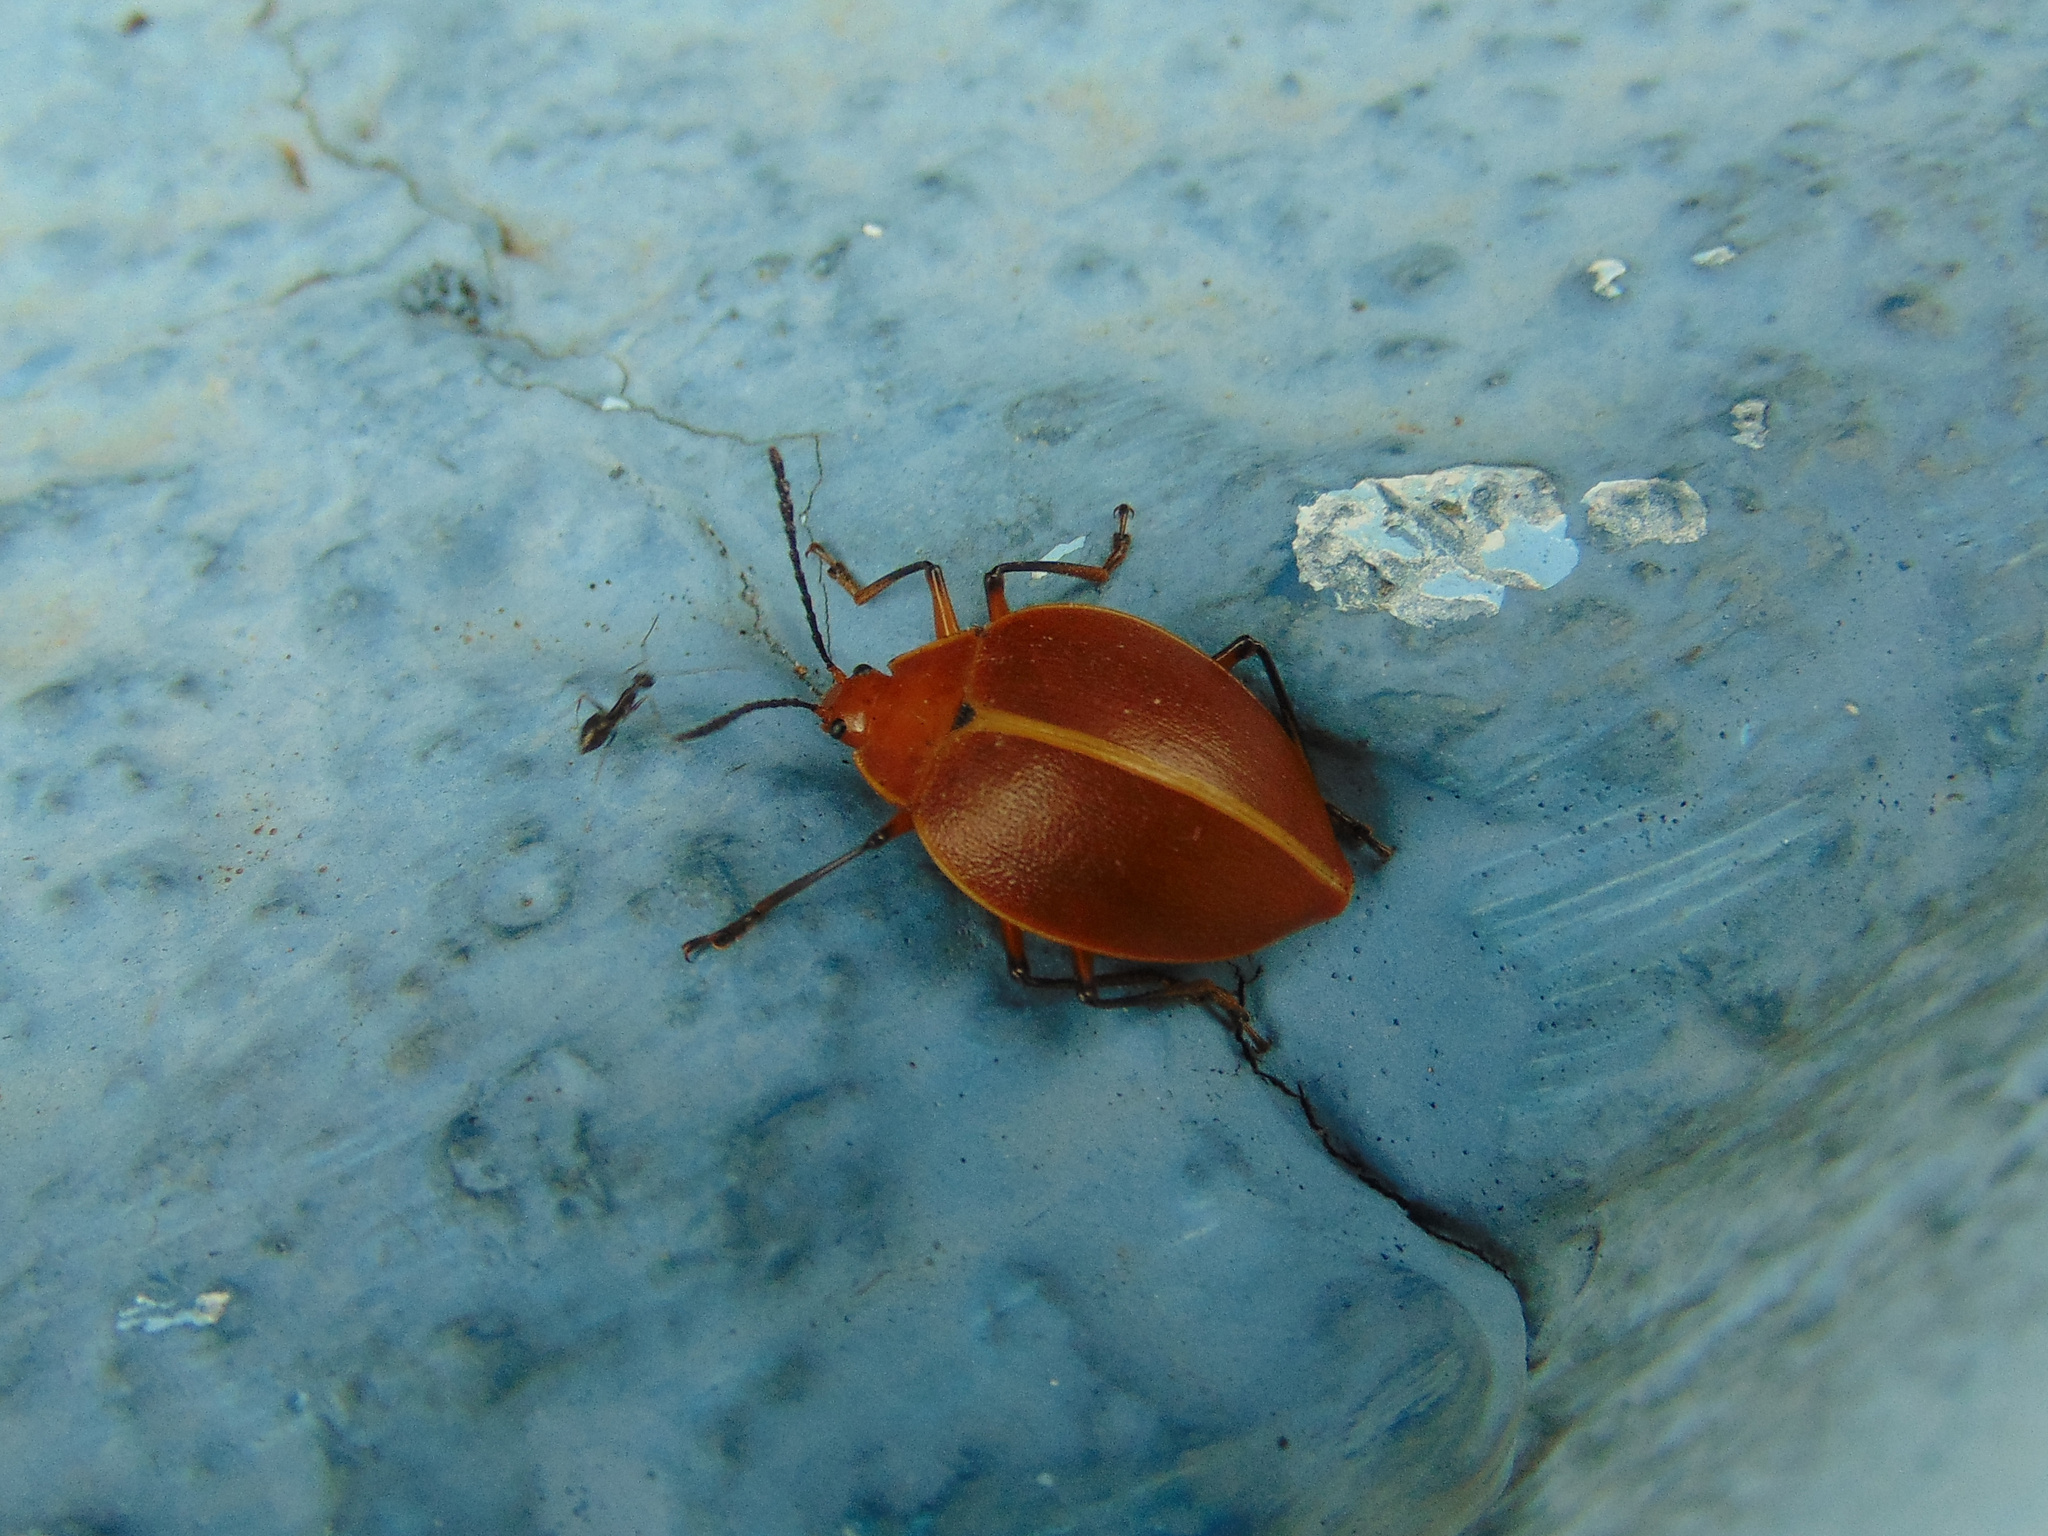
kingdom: Animalia
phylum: Arthropoda
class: Insecta
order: Coleoptera
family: Erotylidae
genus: Ellipticus
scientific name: Ellipticus
